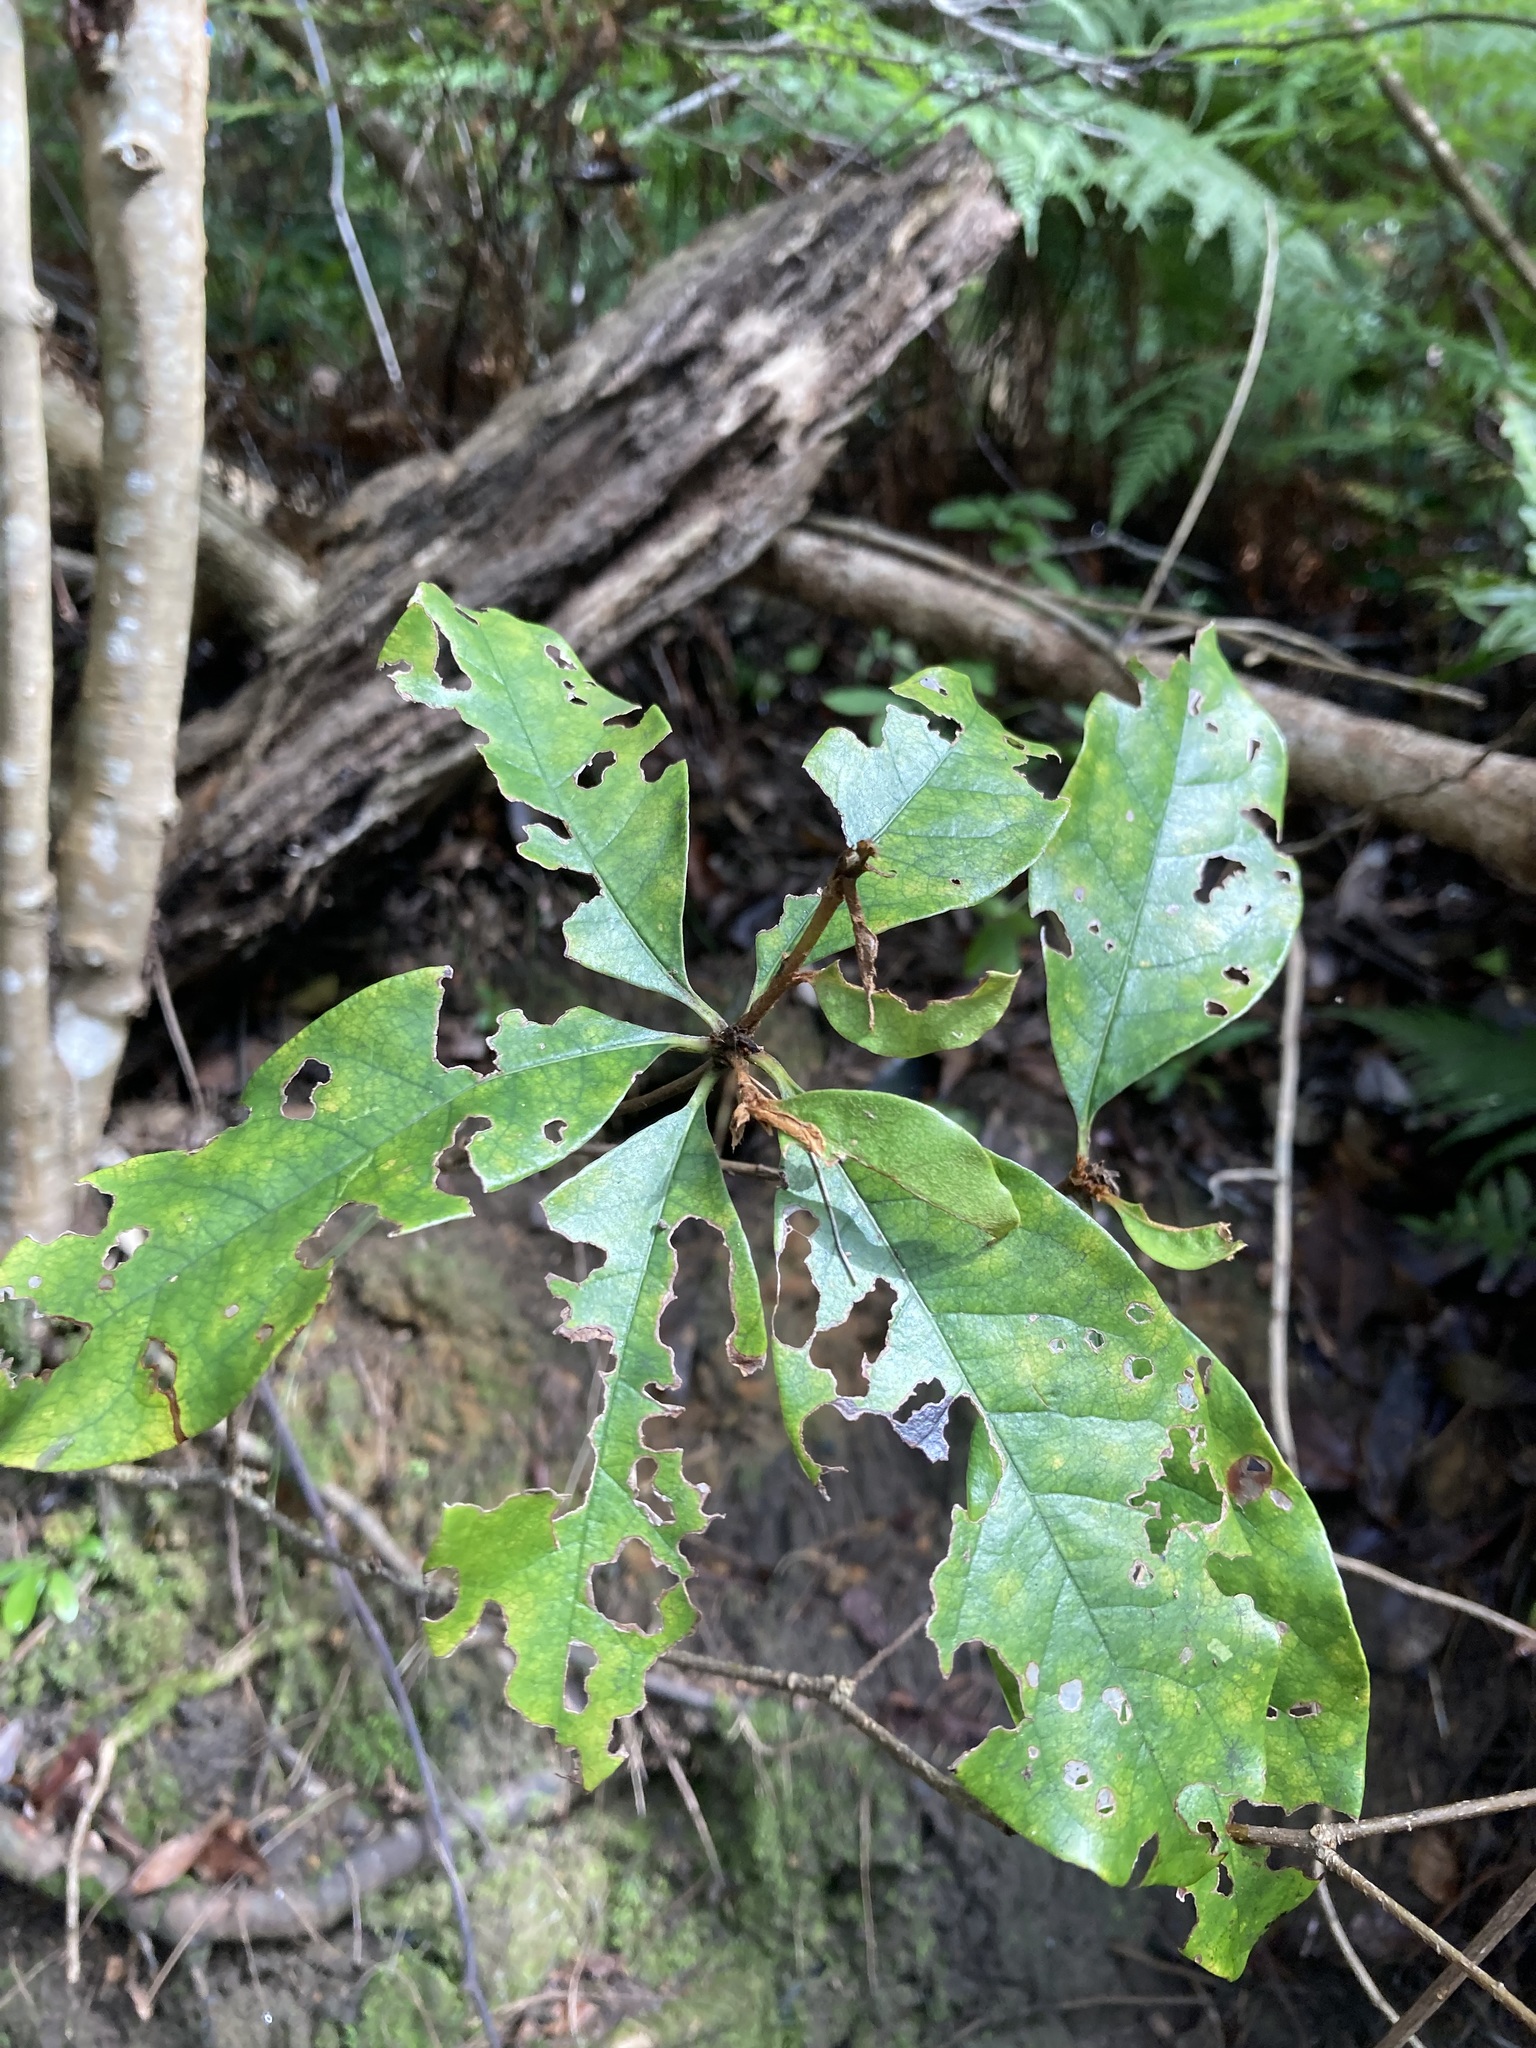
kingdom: Plantae
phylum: Tracheophyta
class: Magnoliopsida
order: Apiales
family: Pittosporaceae
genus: Pittosporum
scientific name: Pittosporum revolutum
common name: Brisbane-laurel
